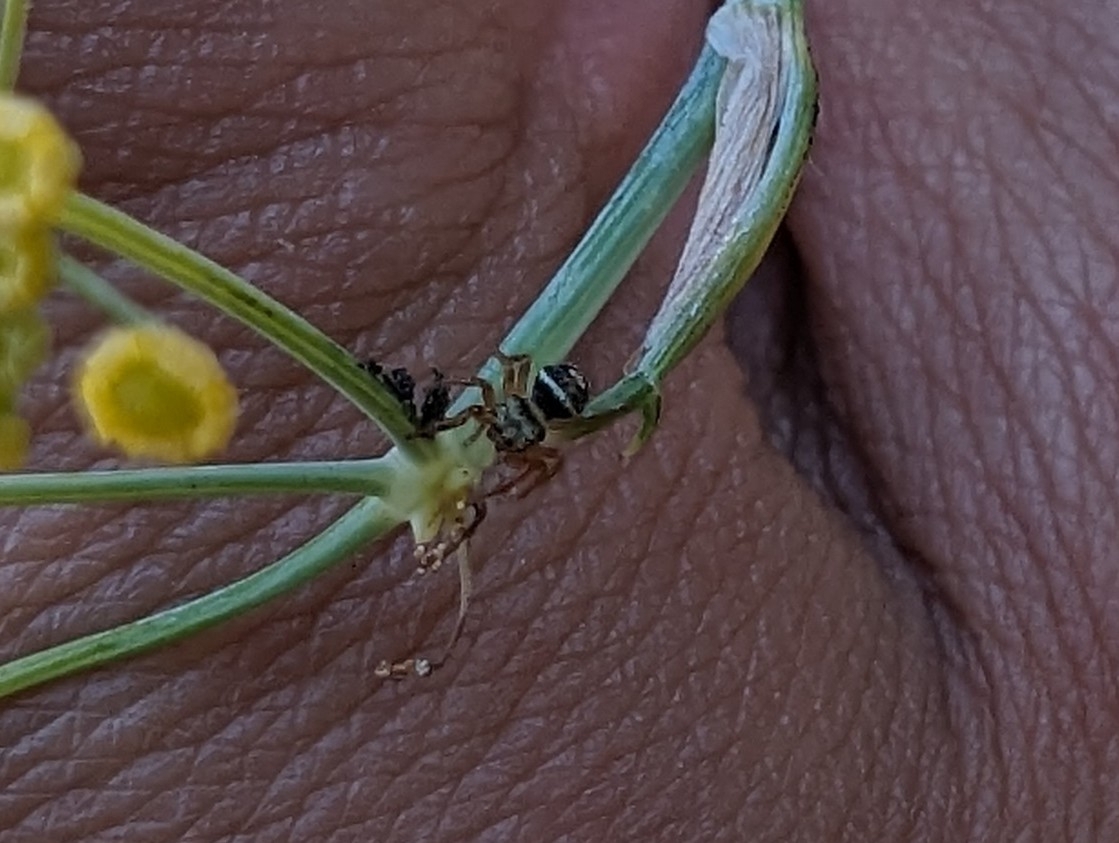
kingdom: Animalia
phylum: Arthropoda
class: Arachnida
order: Araneae
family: Salticidae
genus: Phidippus
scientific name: Phidippus audax
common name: Bold jumper
